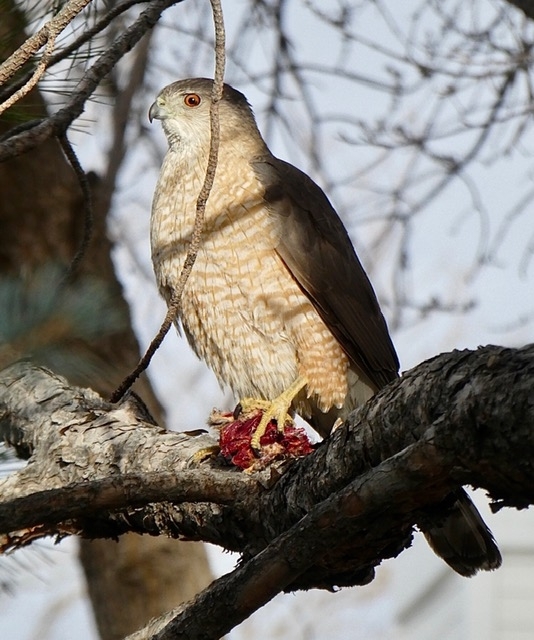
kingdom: Animalia
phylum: Chordata
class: Aves
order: Accipitriformes
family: Accipitridae
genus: Accipiter
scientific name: Accipiter cooperii
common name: Cooper's hawk
